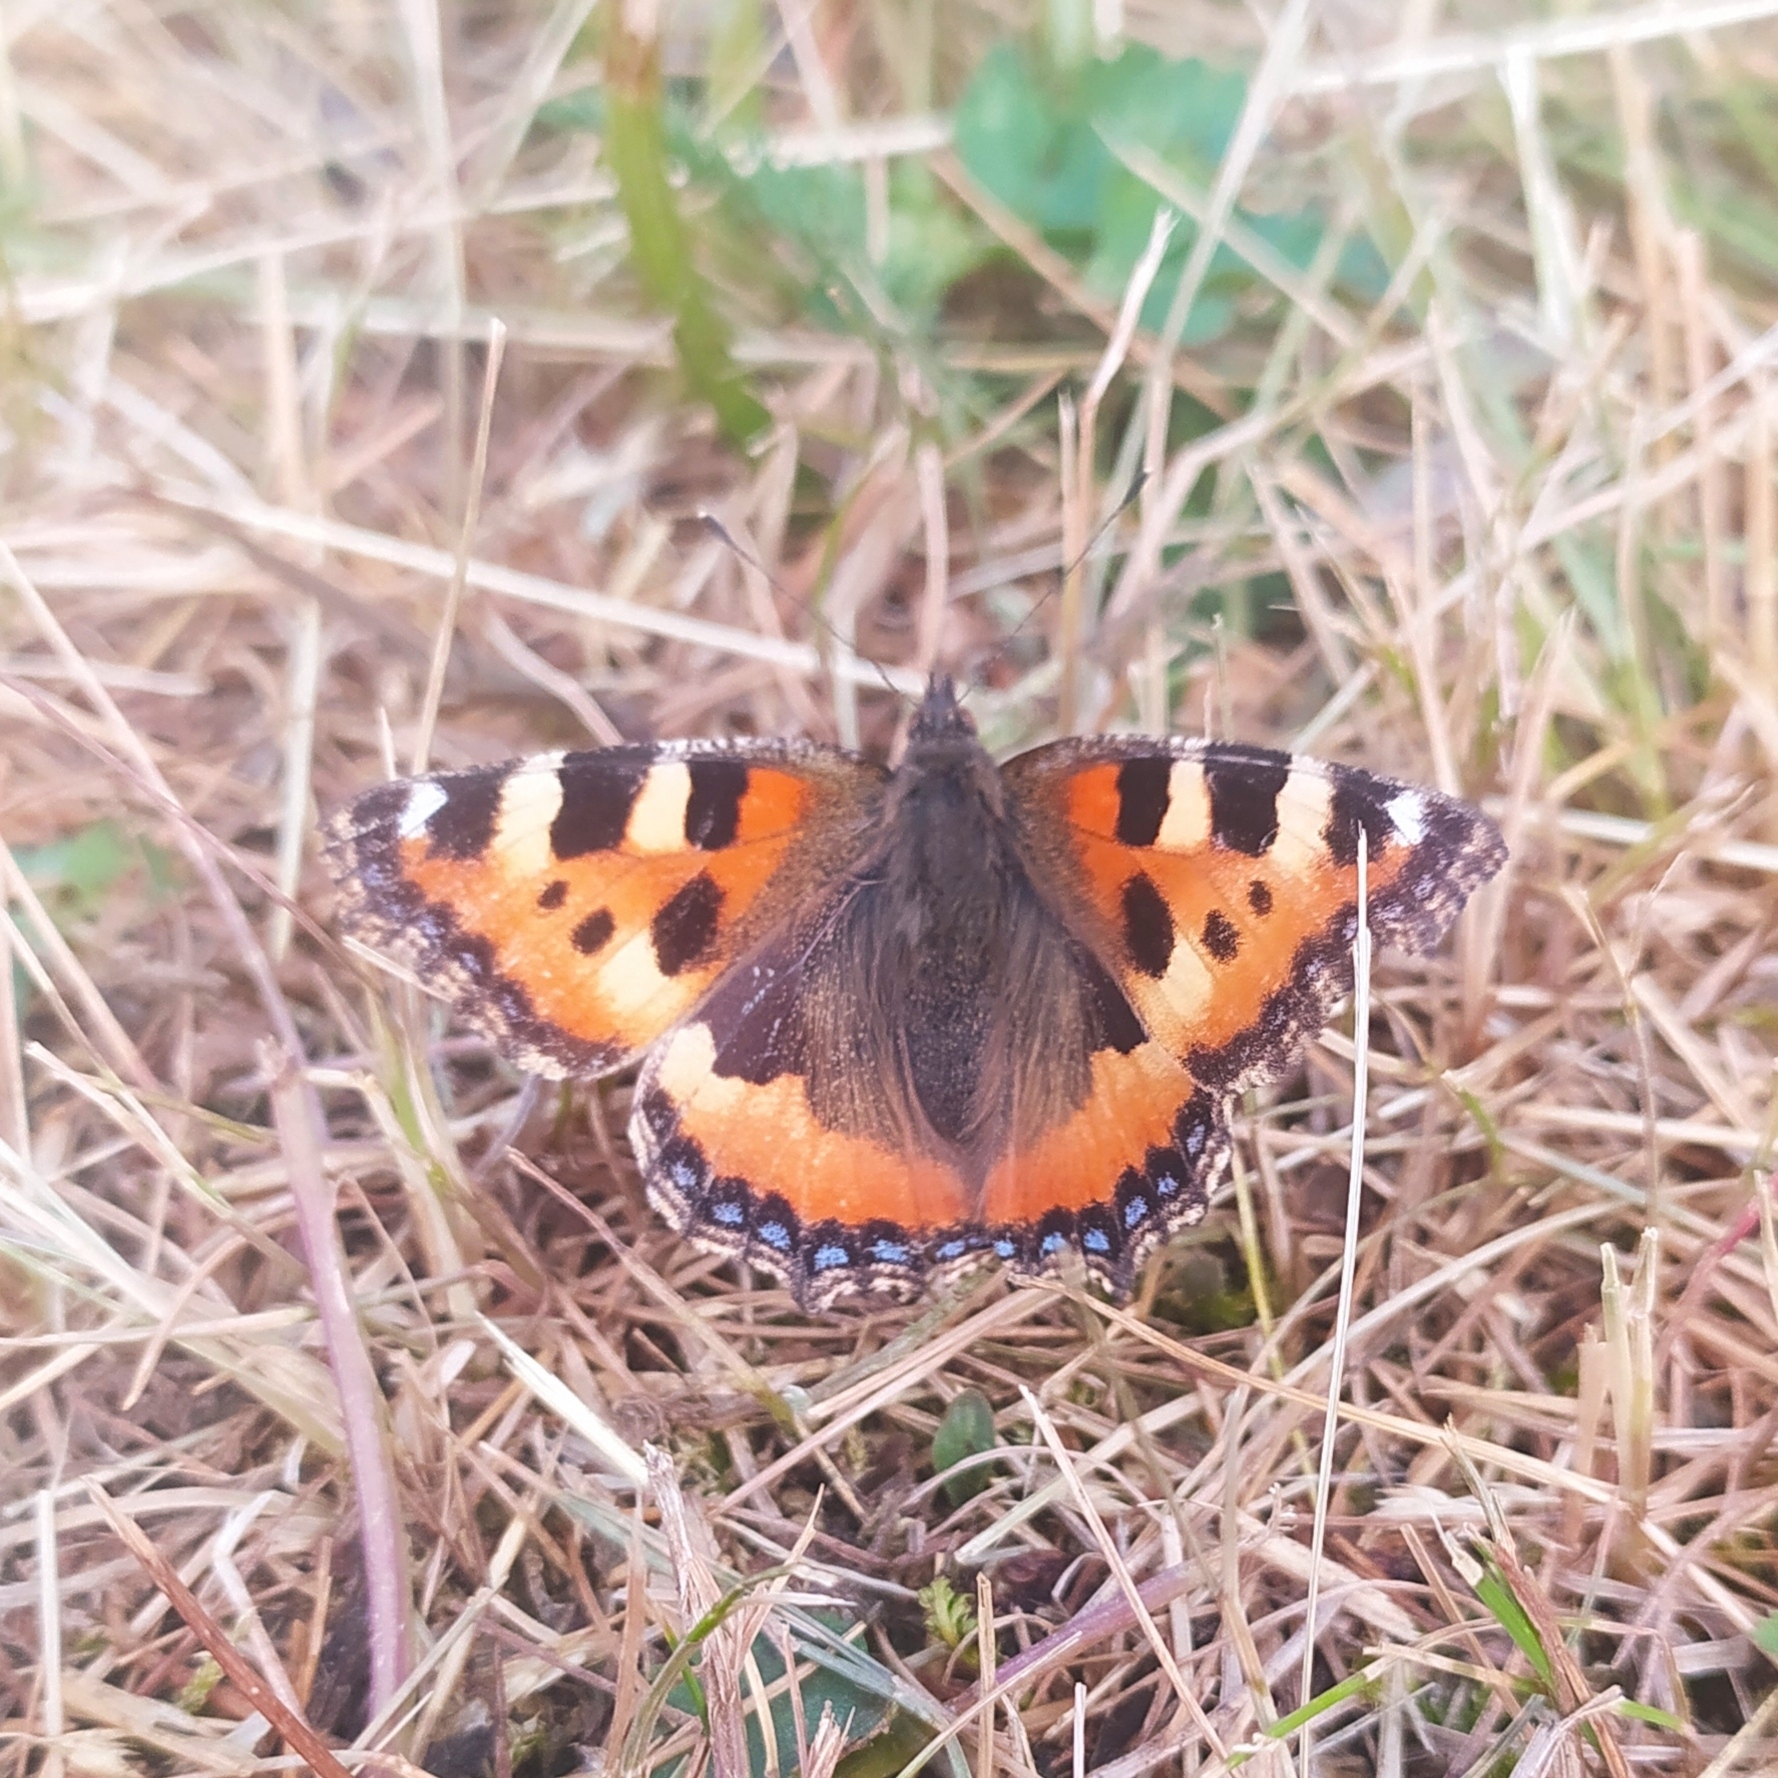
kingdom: Animalia
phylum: Arthropoda
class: Insecta
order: Lepidoptera
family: Nymphalidae
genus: Aglais
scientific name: Aglais urticae
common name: Small tortoiseshell
